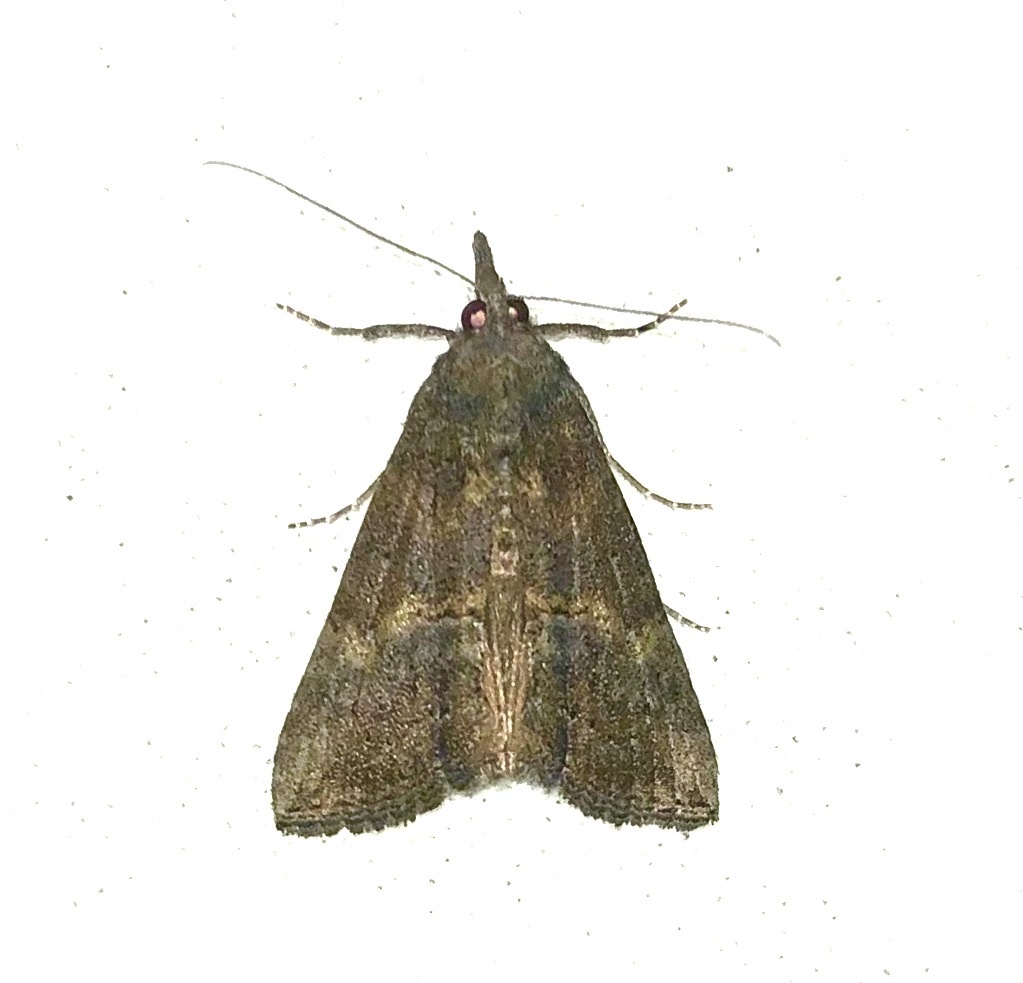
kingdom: Animalia
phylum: Arthropoda
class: Insecta
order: Lepidoptera
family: Erebidae
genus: Hypena
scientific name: Hypena scabra
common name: Green cloverworm
